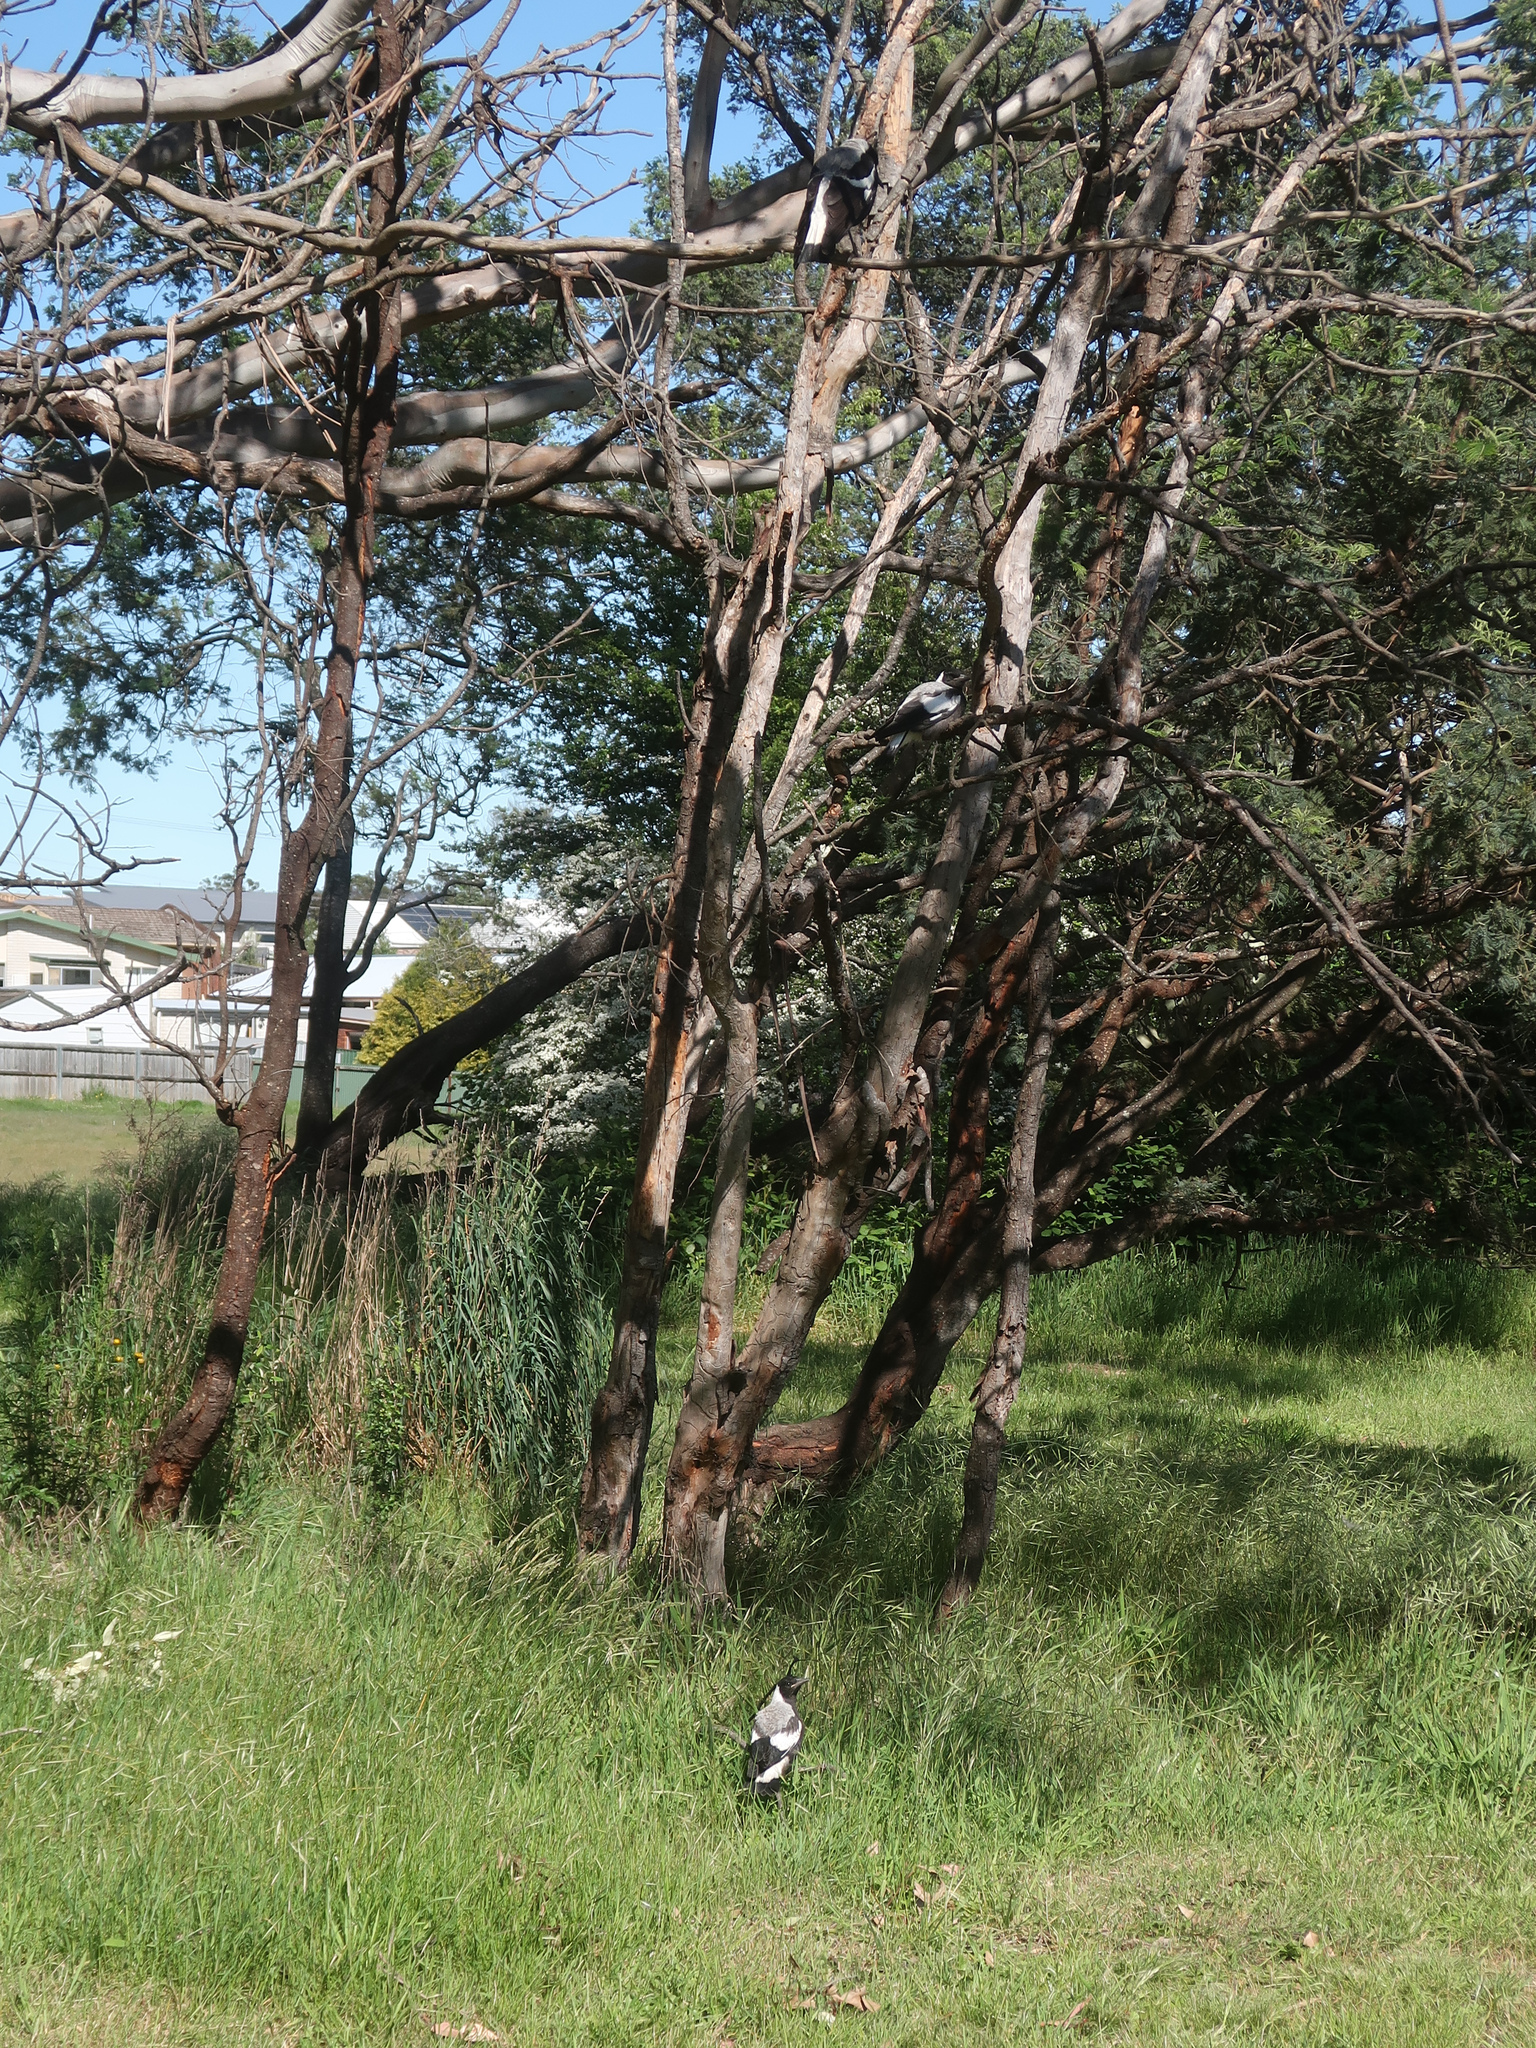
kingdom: Animalia
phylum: Chordata
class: Aves
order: Passeriformes
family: Cracticidae
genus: Gymnorhina
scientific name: Gymnorhina tibicen
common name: Australian magpie
